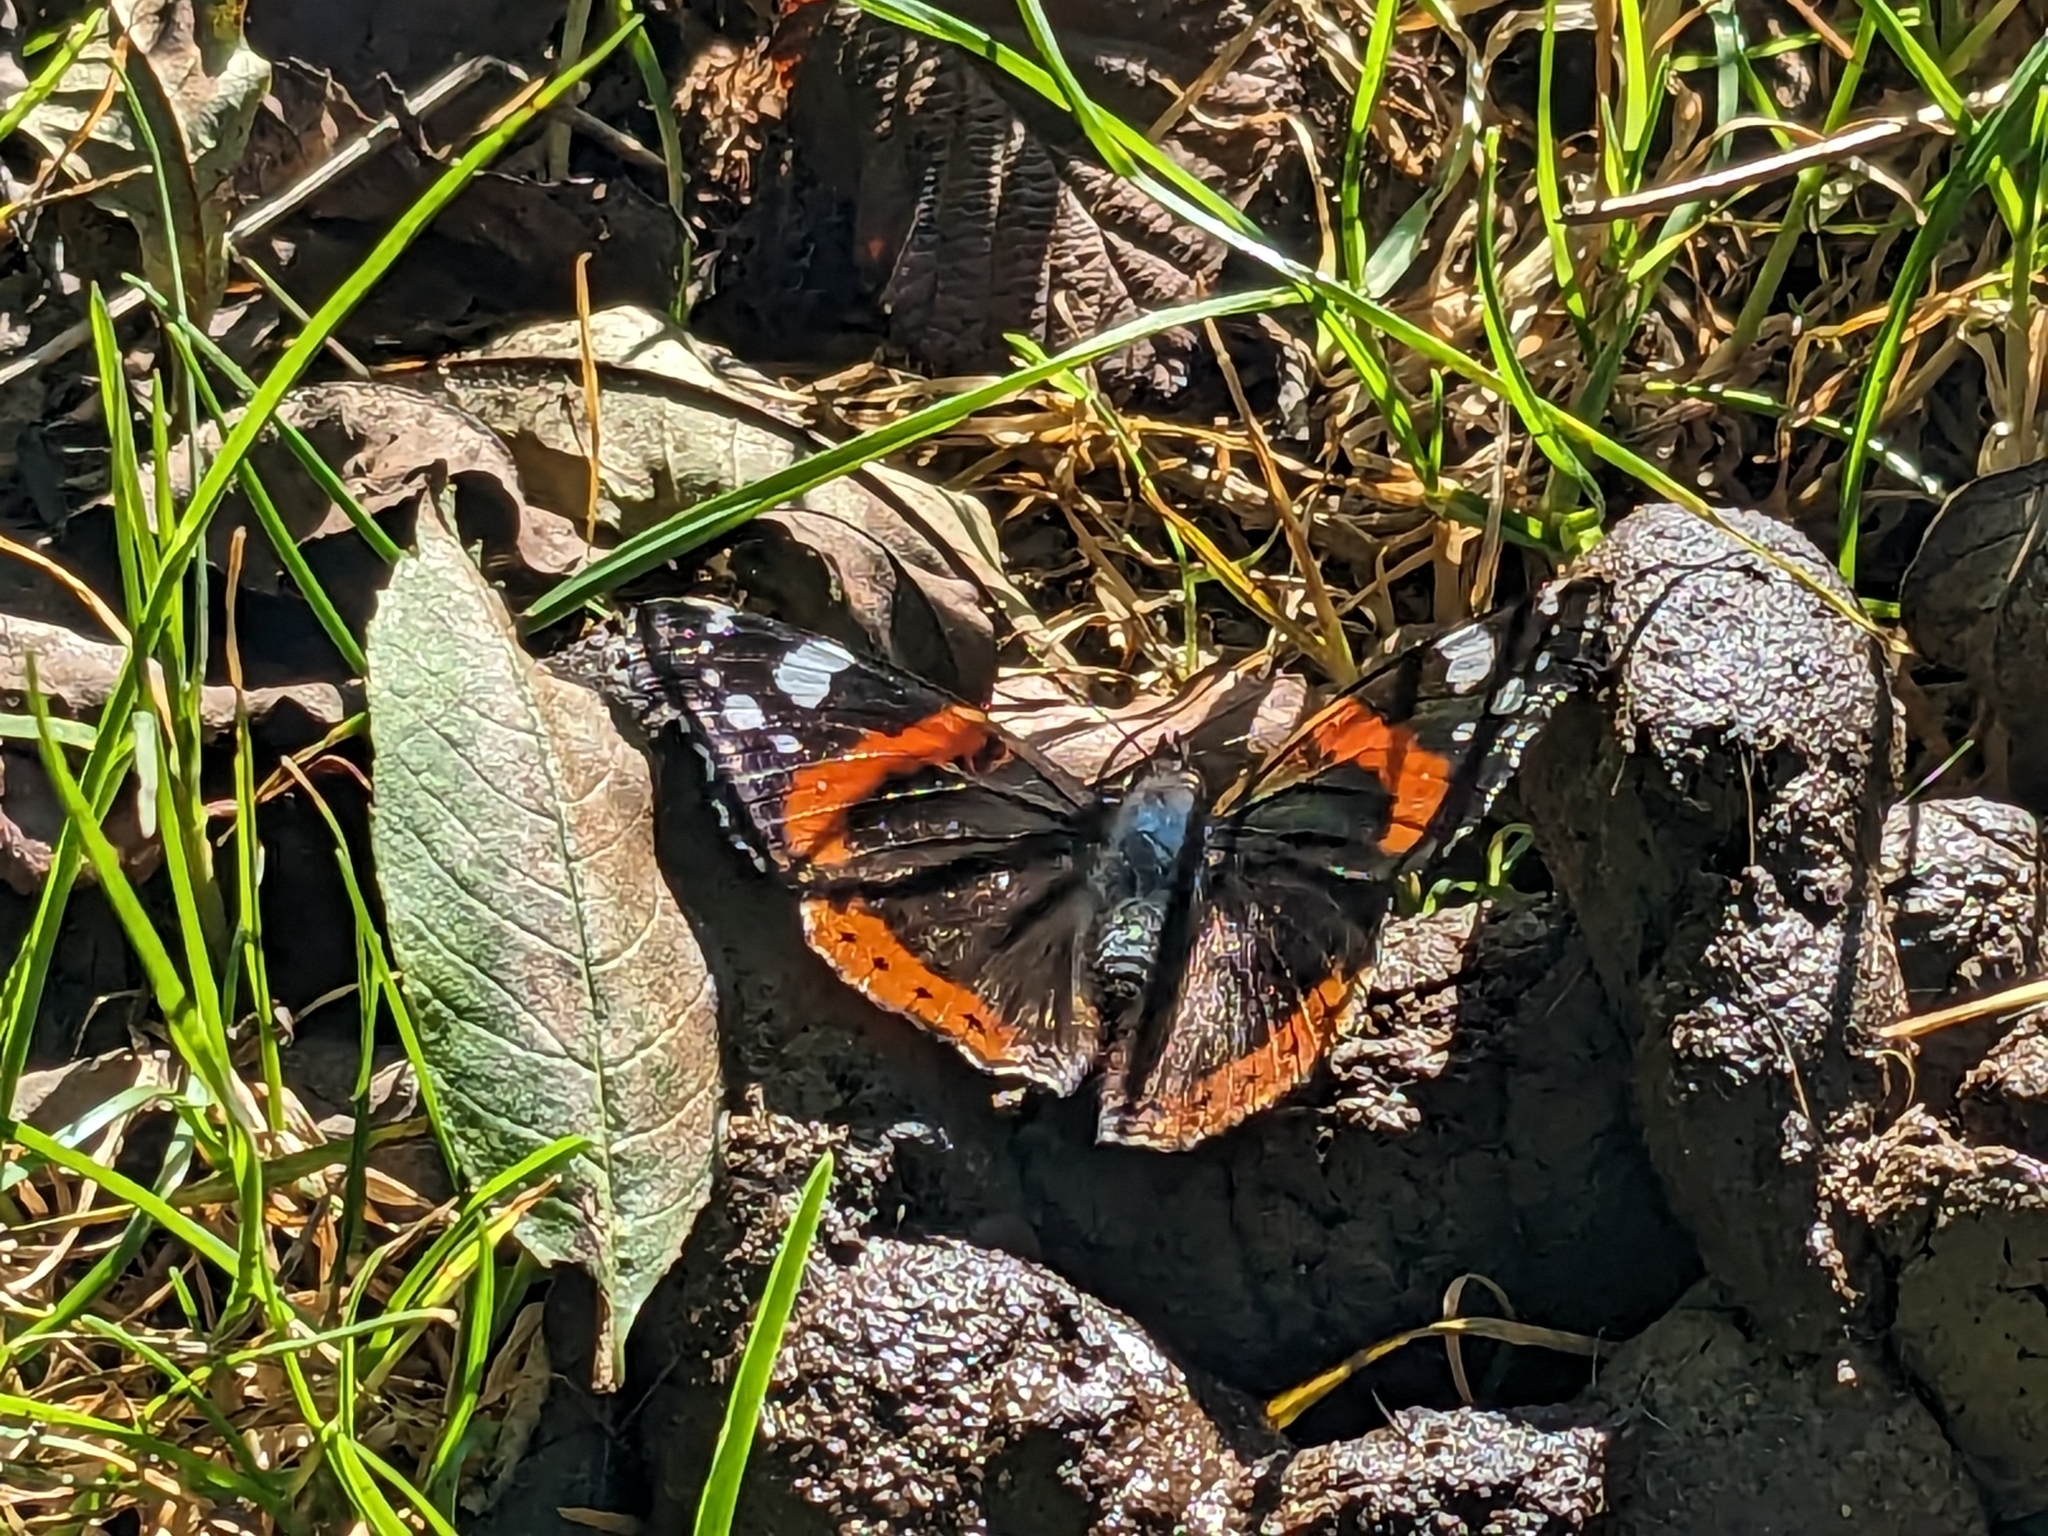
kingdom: Animalia
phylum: Arthropoda
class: Insecta
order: Lepidoptera
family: Nymphalidae
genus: Vanessa
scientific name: Vanessa atalanta
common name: Red admiral
